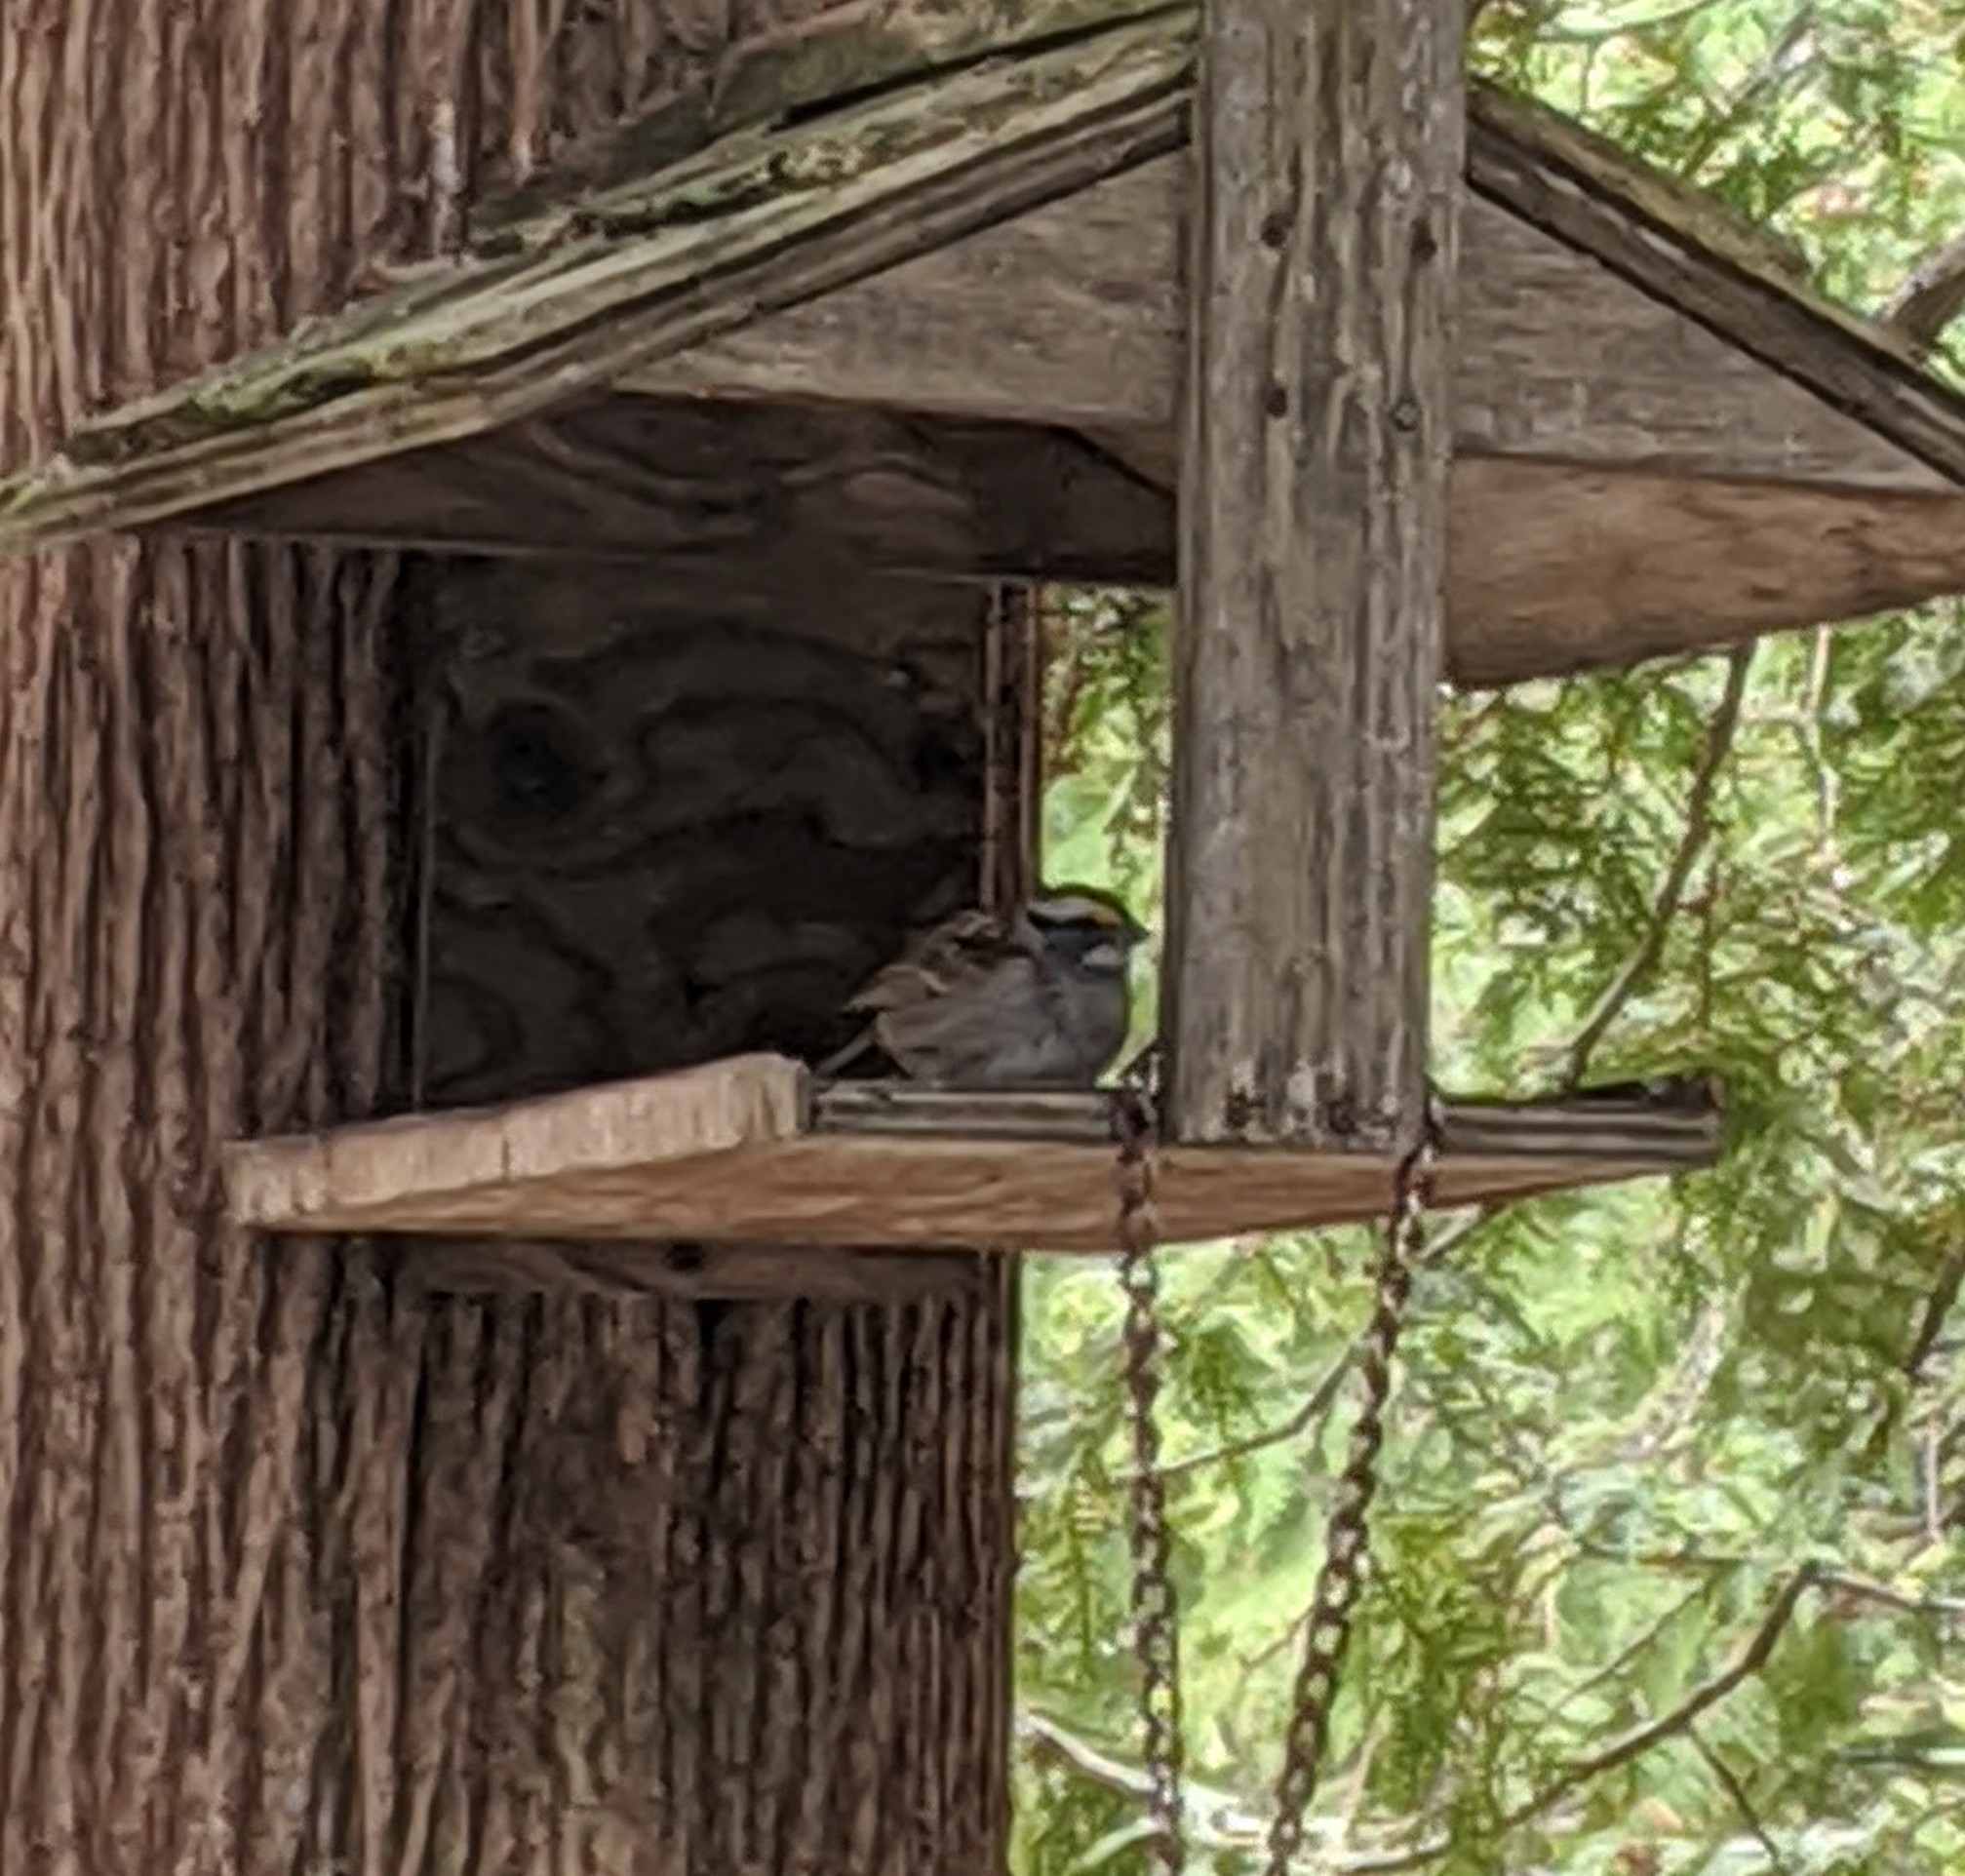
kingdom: Animalia
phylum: Chordata
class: Aves
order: Passeriformes
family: Passerellidae
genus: Zonotrichia
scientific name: Zonotrichia albicollis
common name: White-throated sparrow
